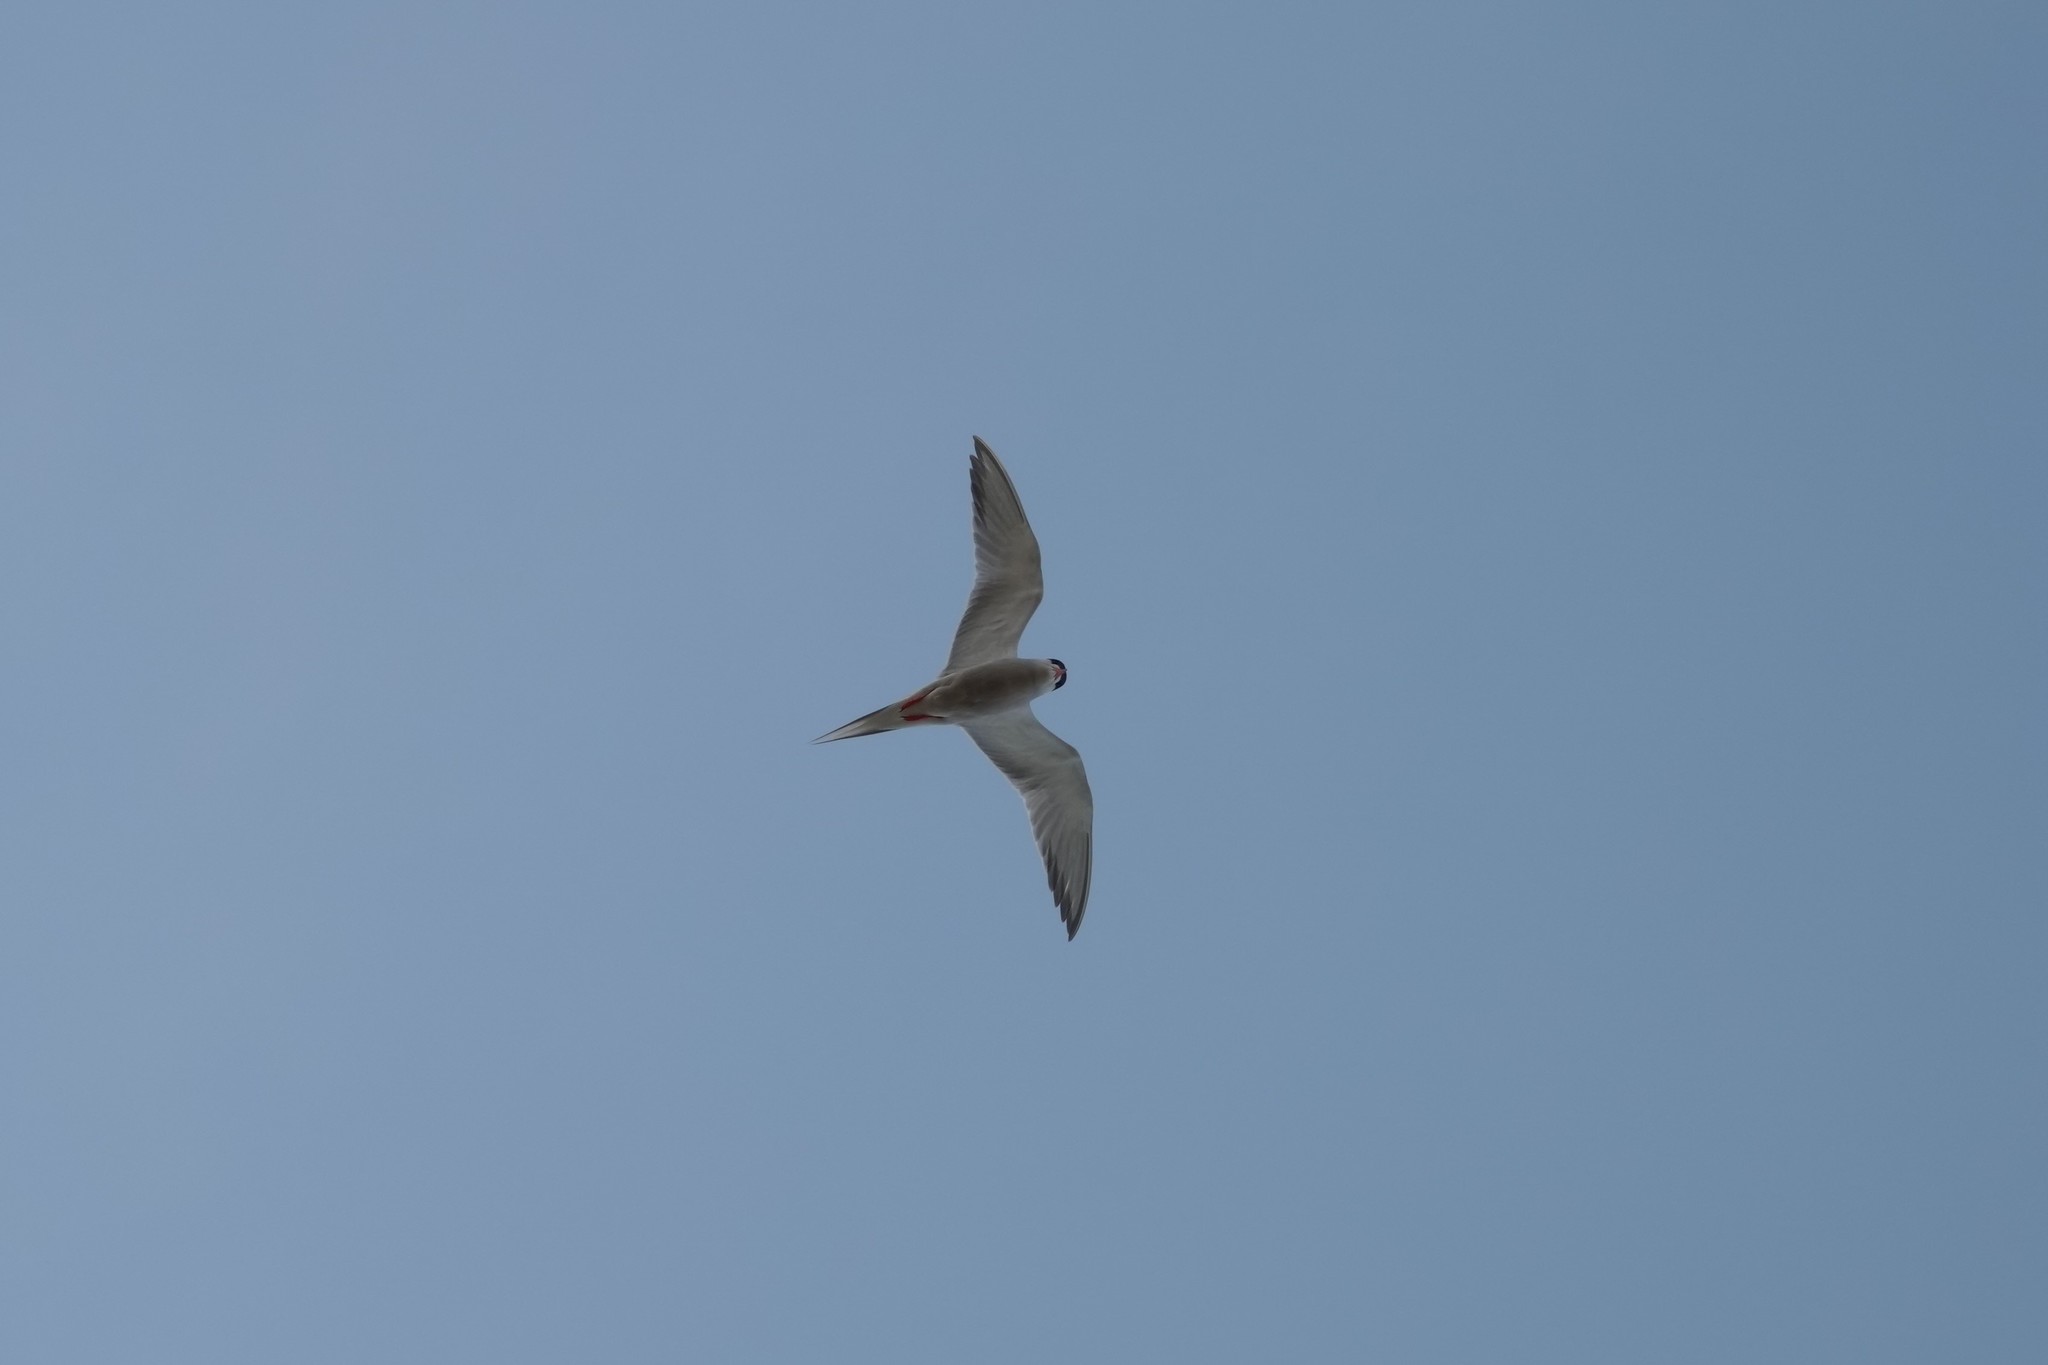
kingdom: Animalia
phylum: Chordata
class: Aves
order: Charadriiformes
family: Laridae
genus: Sterna
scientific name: Sterna hirundo
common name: Common tern
